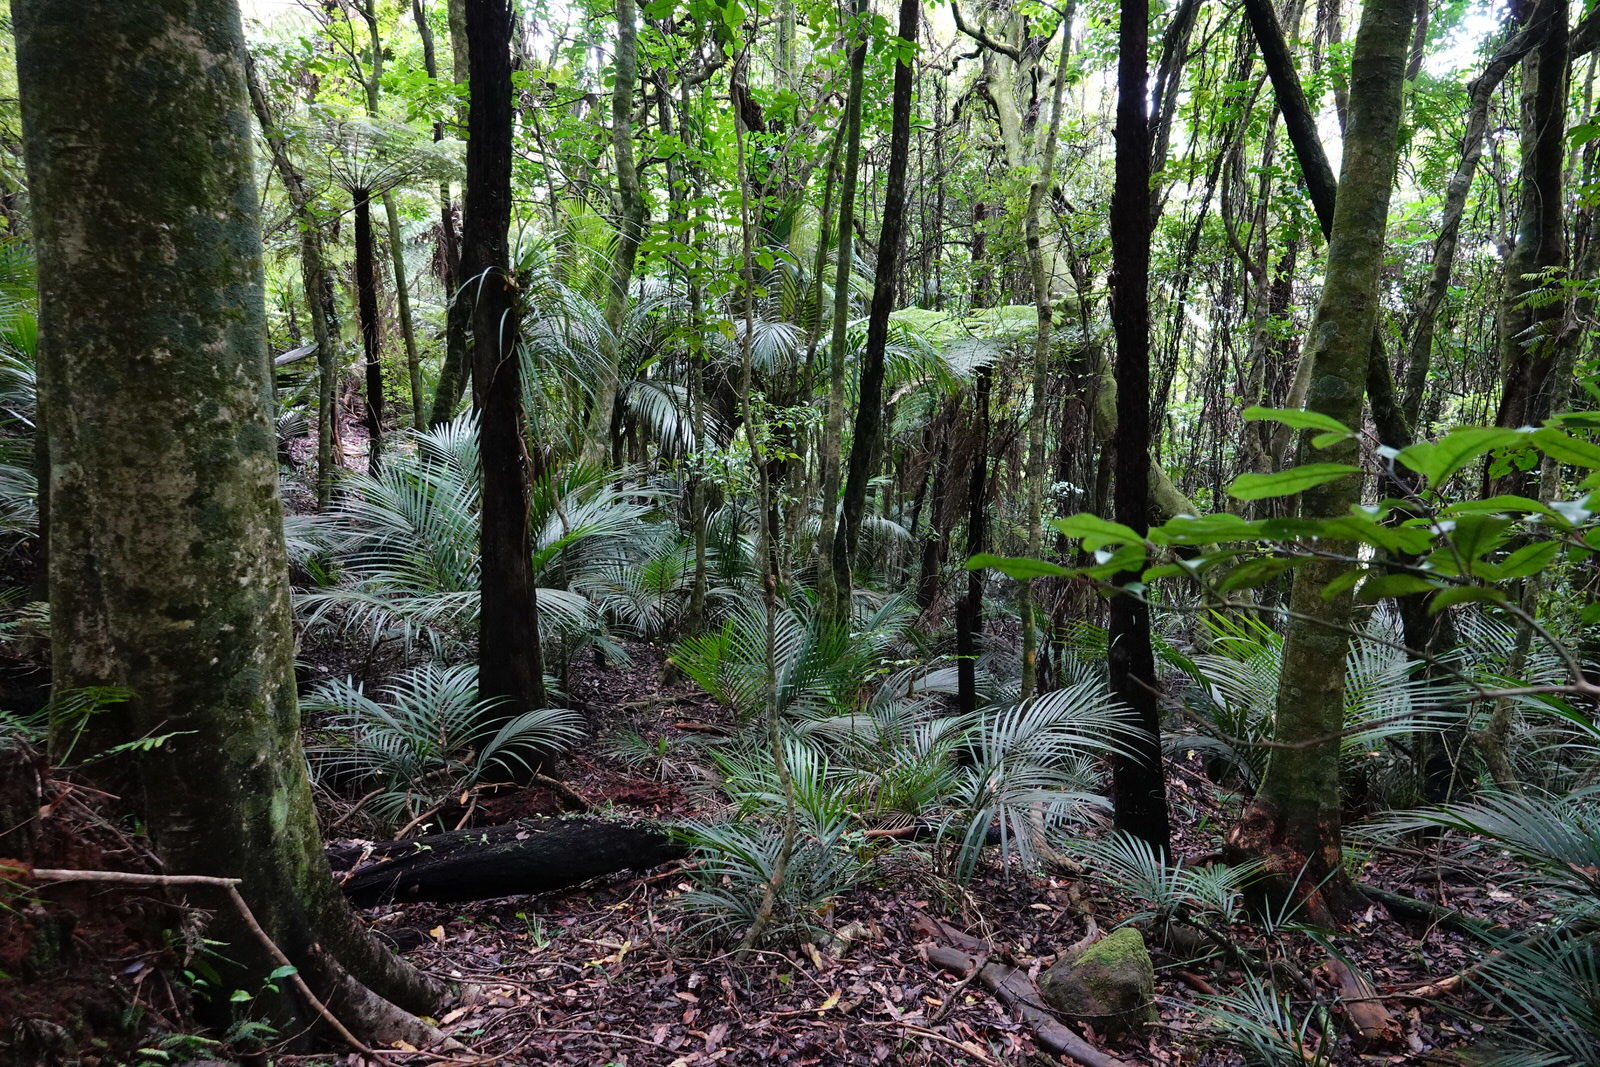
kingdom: Plantae
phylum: Tracheophyta
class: Liliopsida
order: Arecales
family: Arecaceae
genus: Rhopalostylis
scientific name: Rhopalostylis sapida
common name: Feather-duster palm
